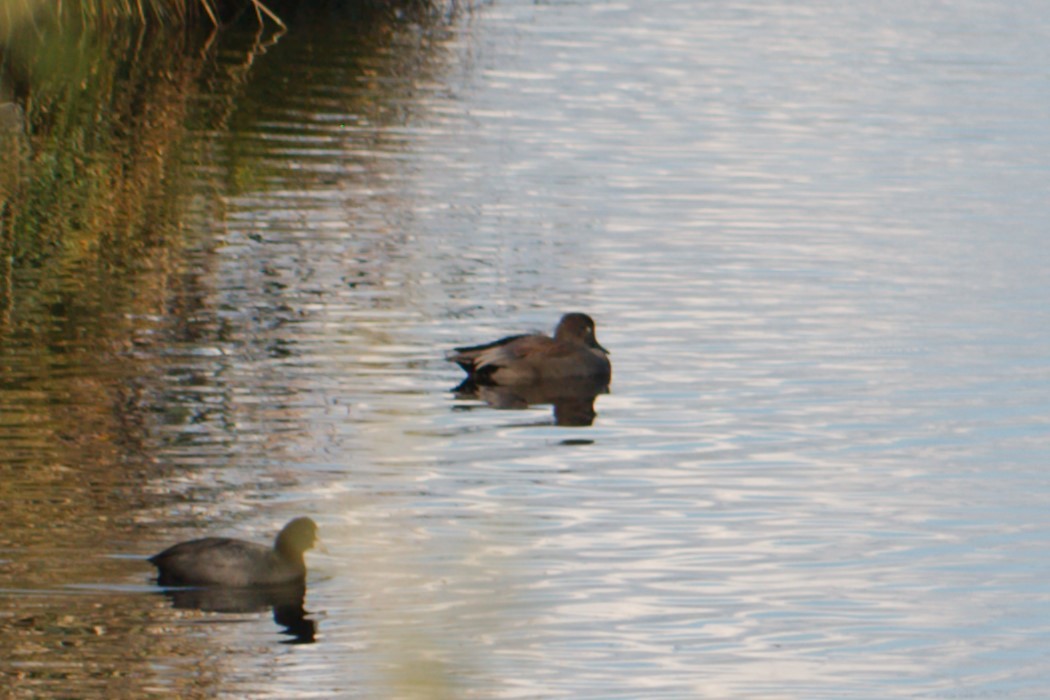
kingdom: Animalia
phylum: Chordata
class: Aves
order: Anseriformes
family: Anatidae
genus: Mareca
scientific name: Mareca strepera
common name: Gadwall
